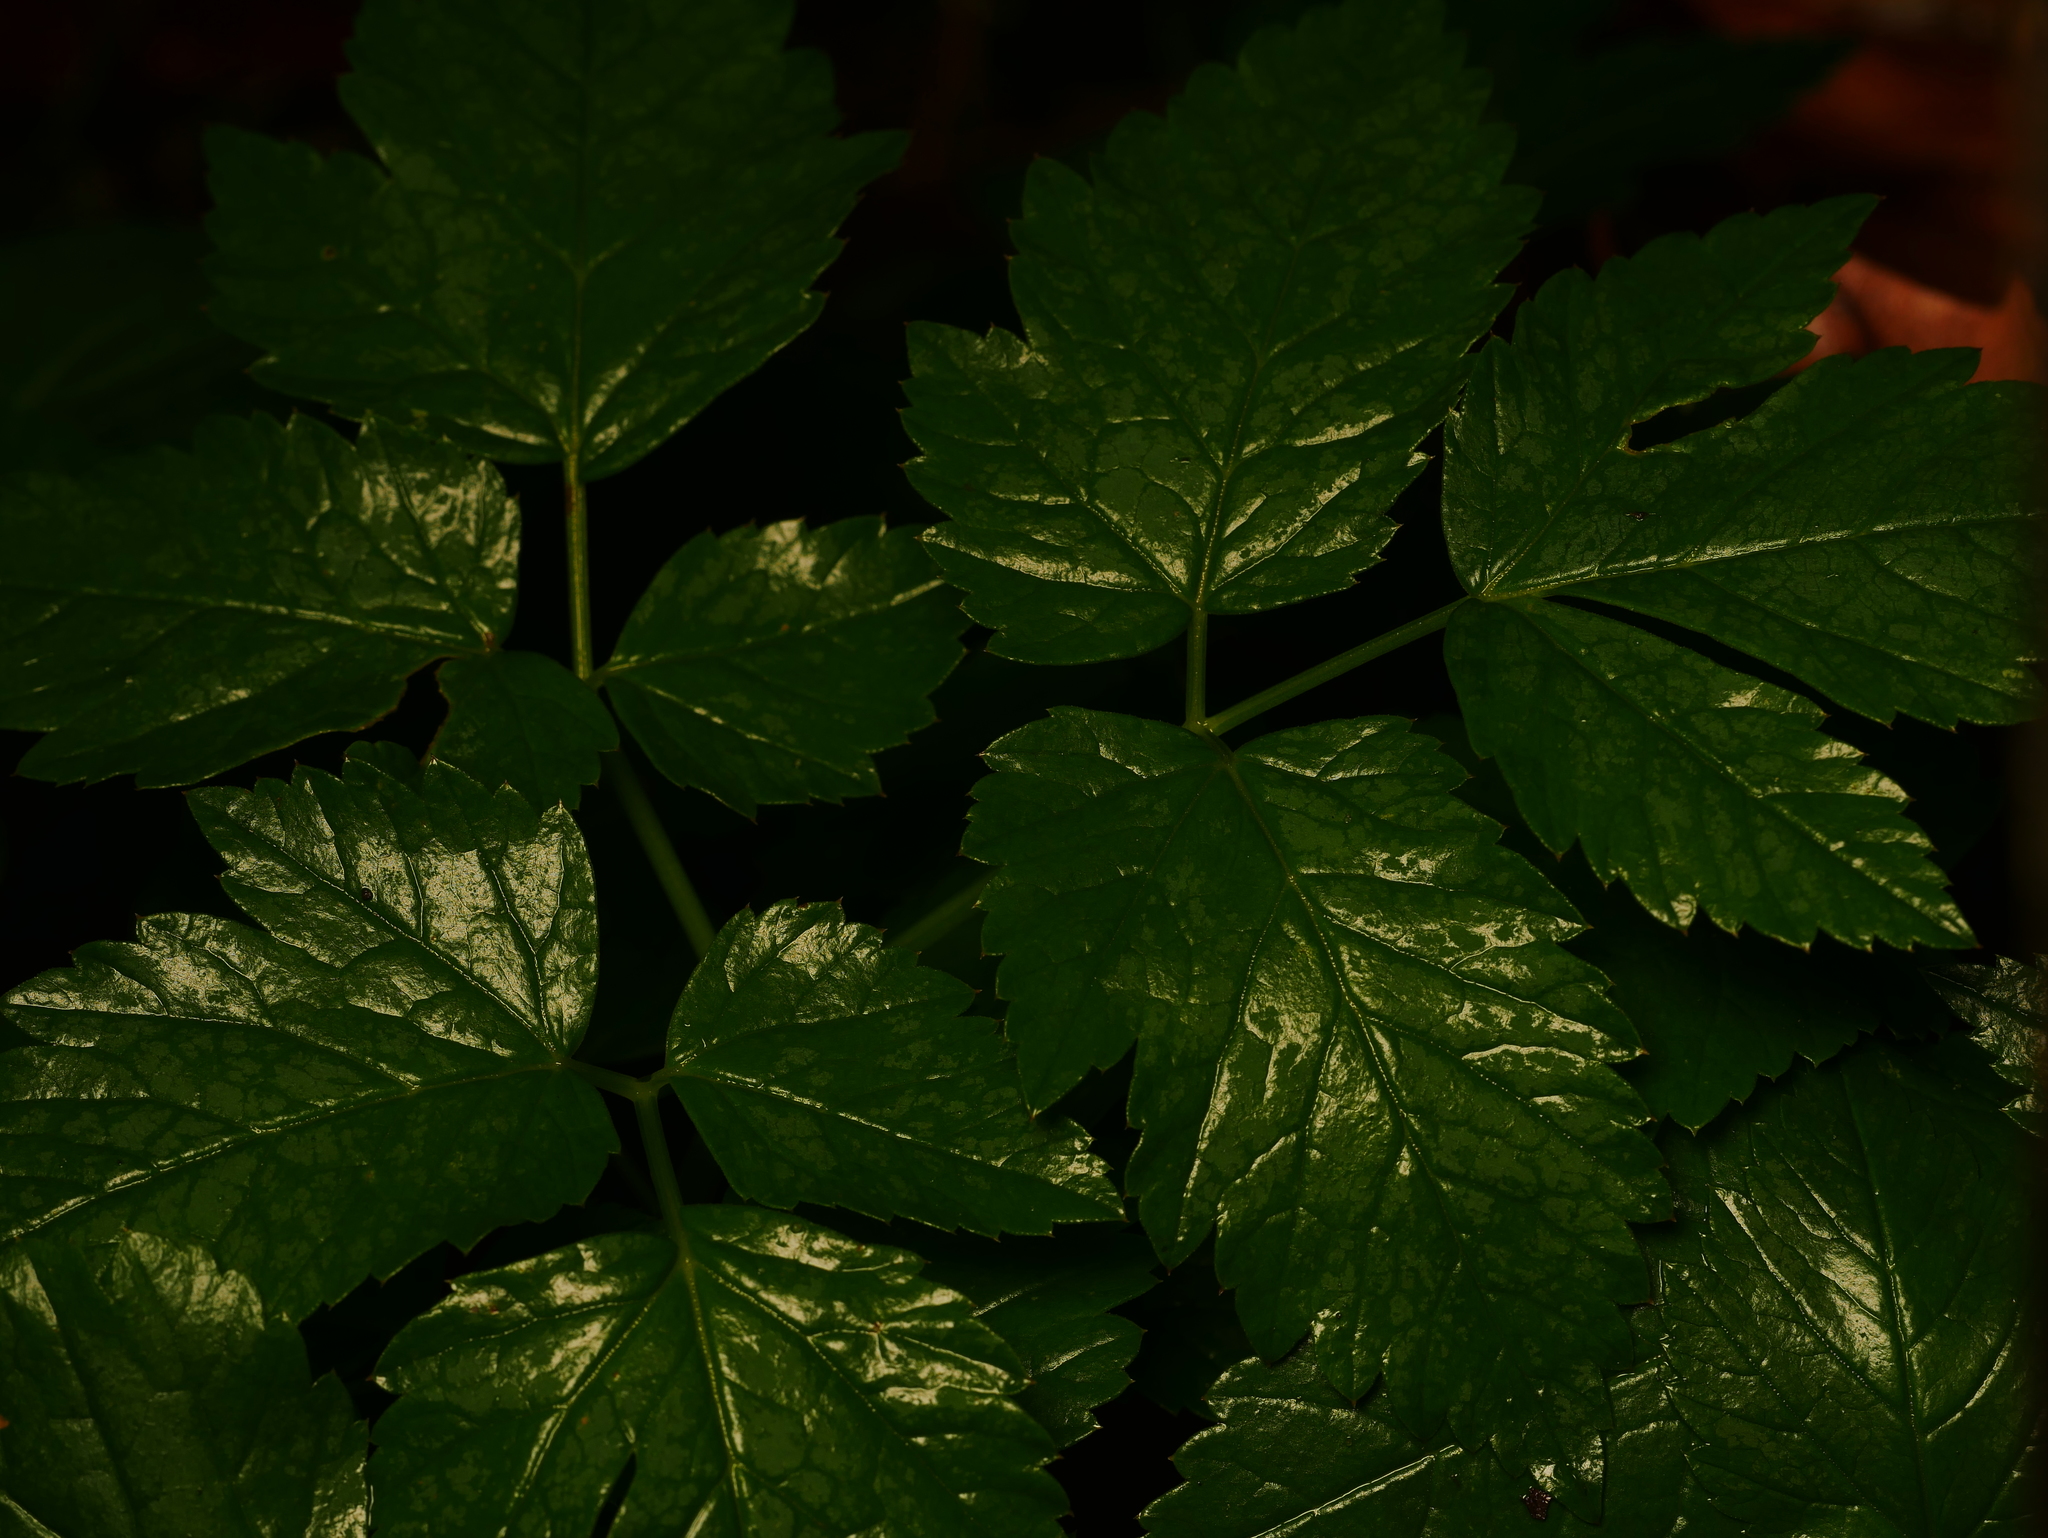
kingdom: Plantae
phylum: Tracheophyta
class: Magnoliopsida
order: Apiales
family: Apiaceae
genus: Aegopodium
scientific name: Aegopodium podagraria
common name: Ground-elder
